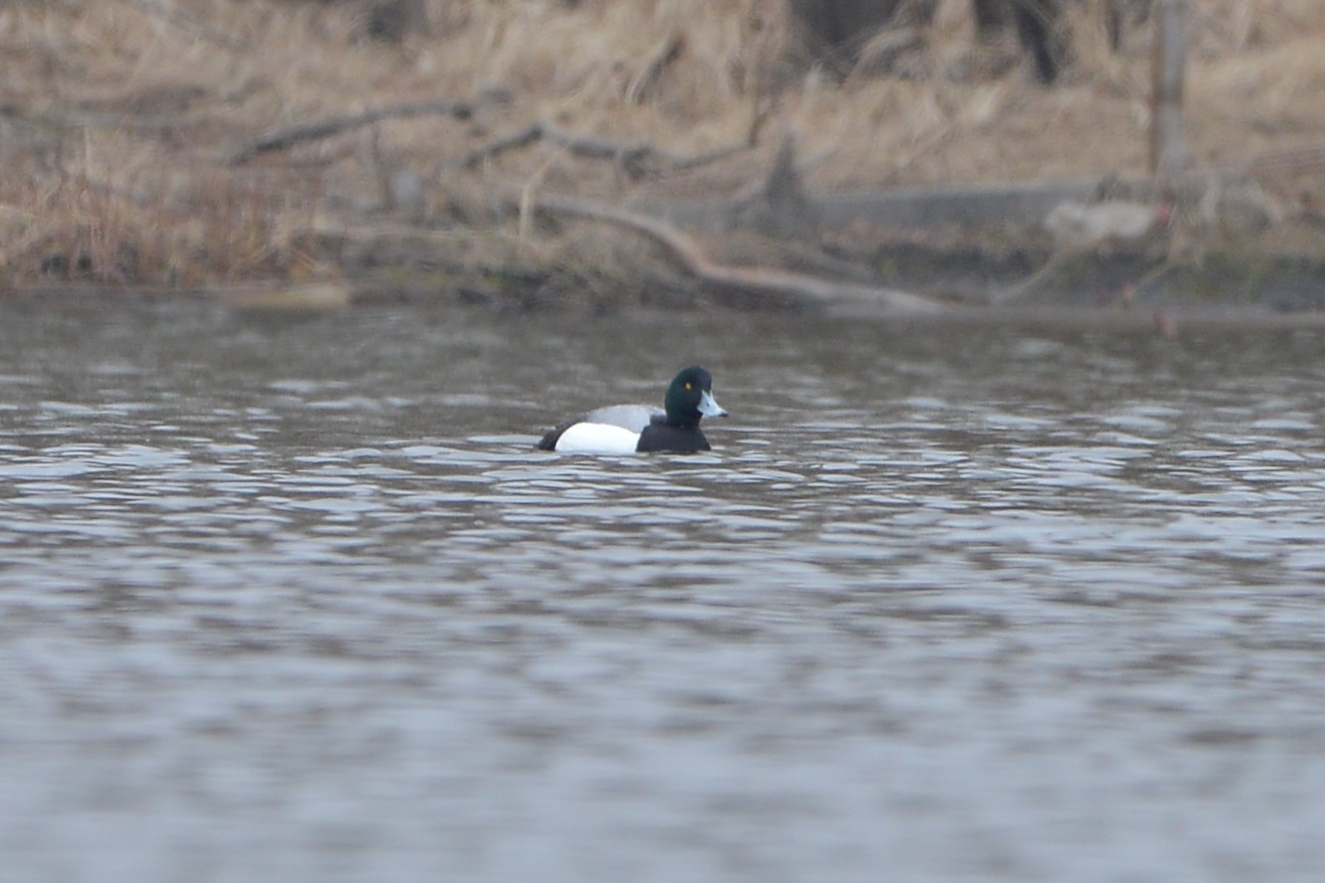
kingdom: Animalia
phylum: Chordata
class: Aves
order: Anseriformes
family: Anatidae
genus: Aythya
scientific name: Aythya marila
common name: Greater scaup
